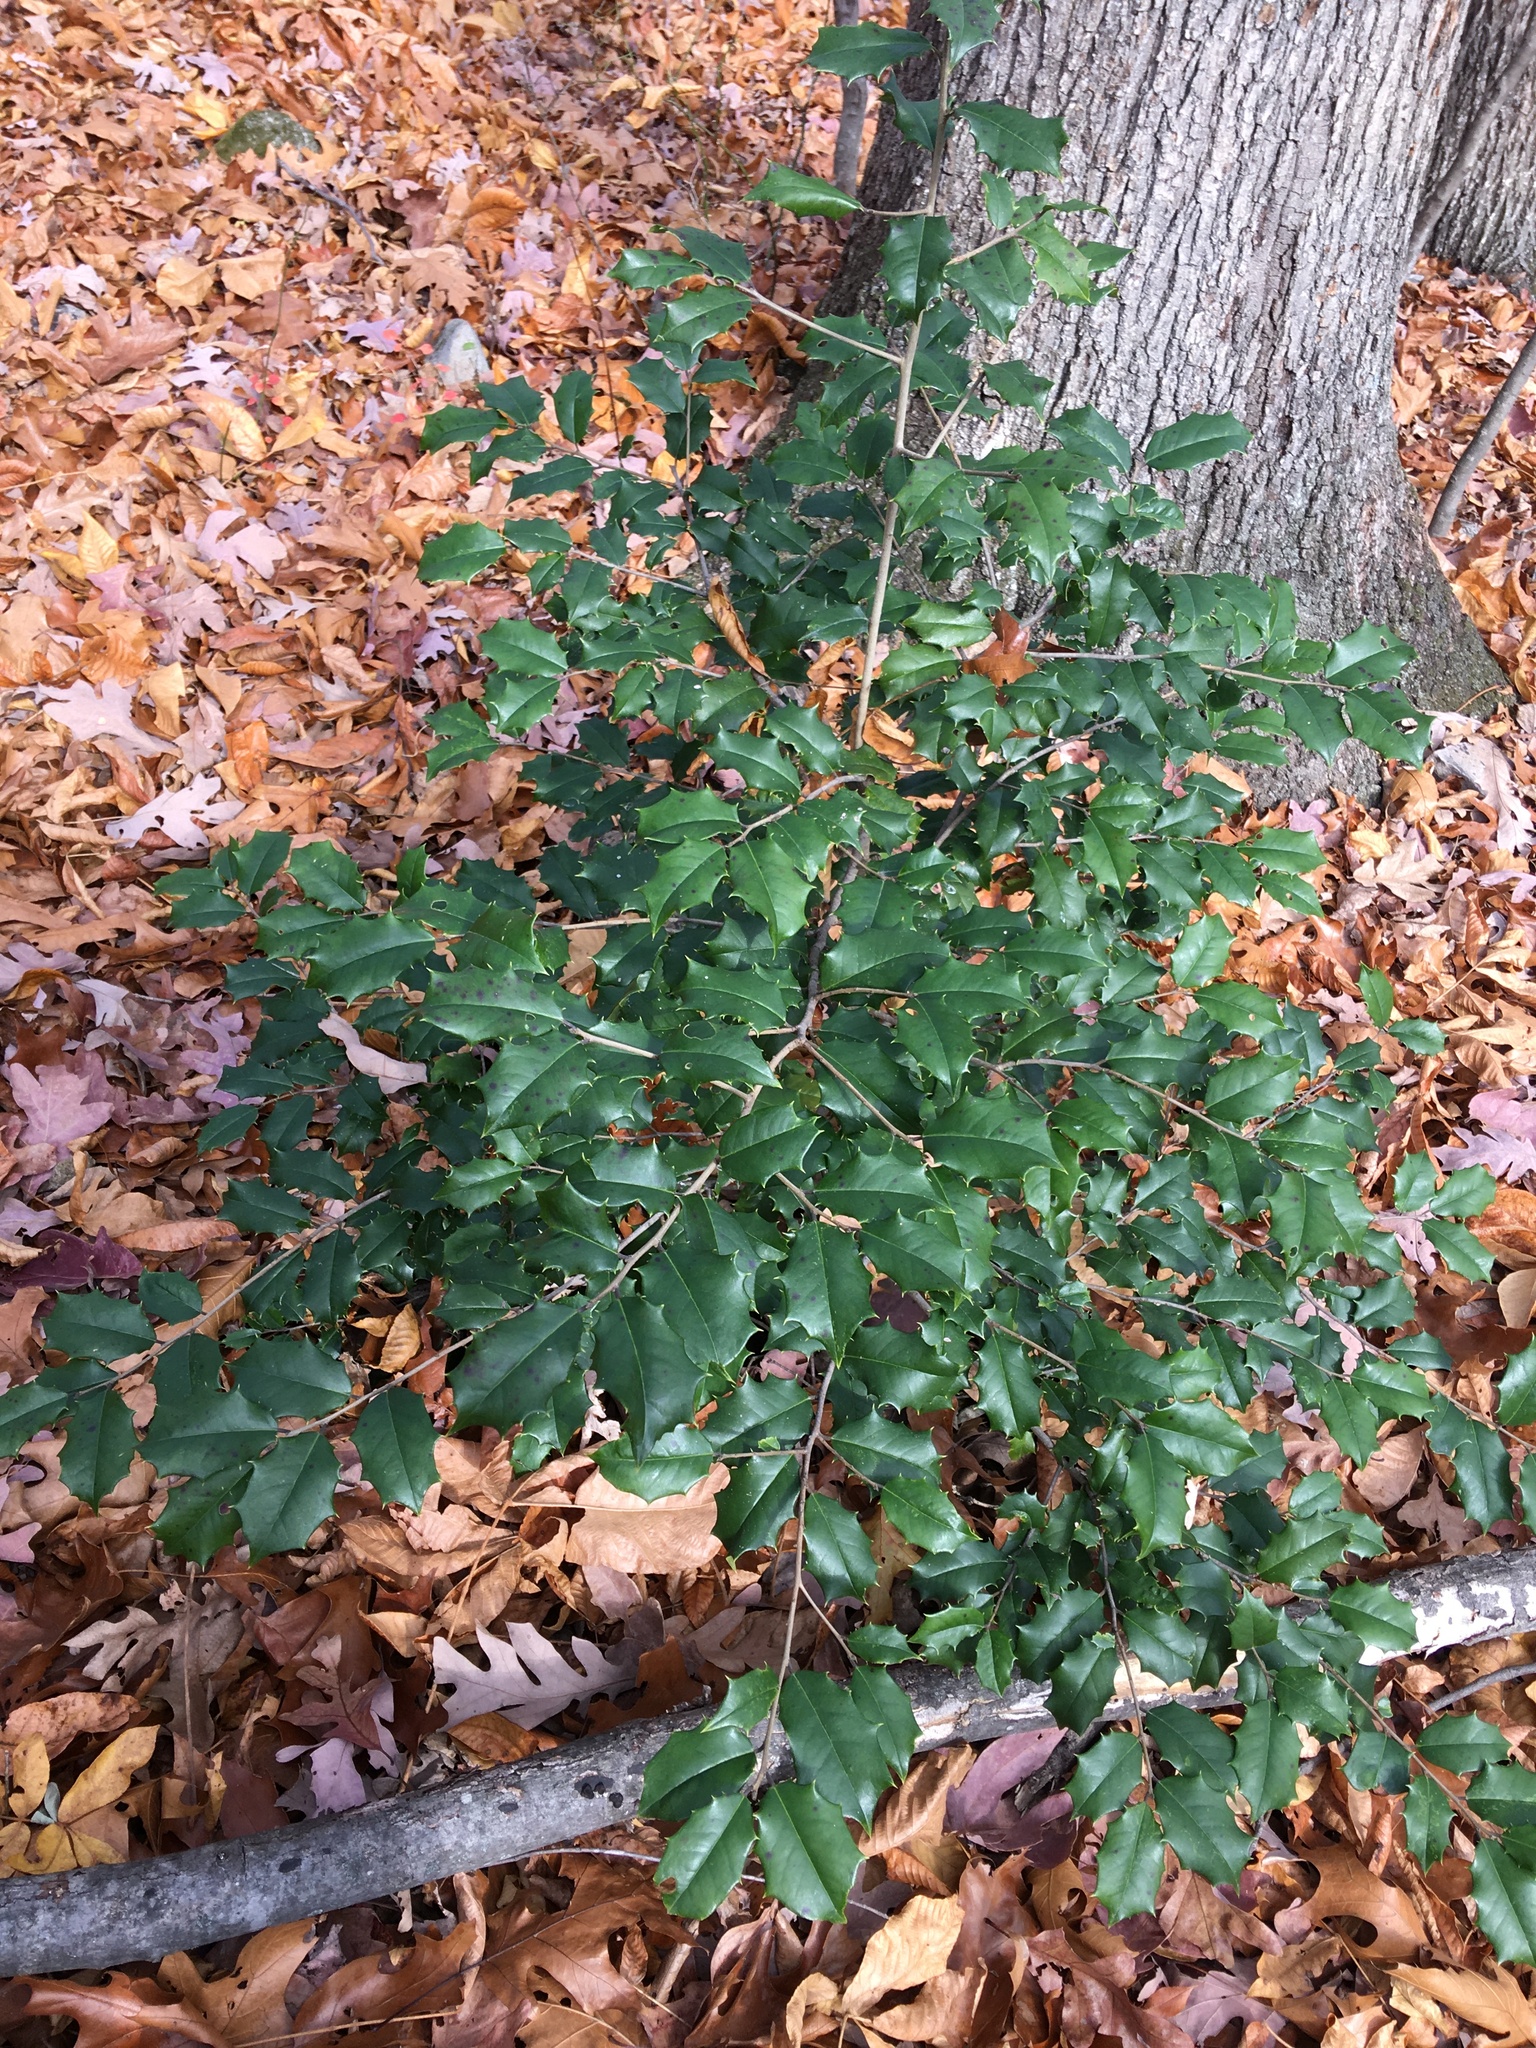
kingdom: Plantae
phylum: Tracheophyta
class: Magnoliopsida
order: Aquifoliales
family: Aquifoliaceae
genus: Ilex
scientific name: Ilex opaca
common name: American holly
